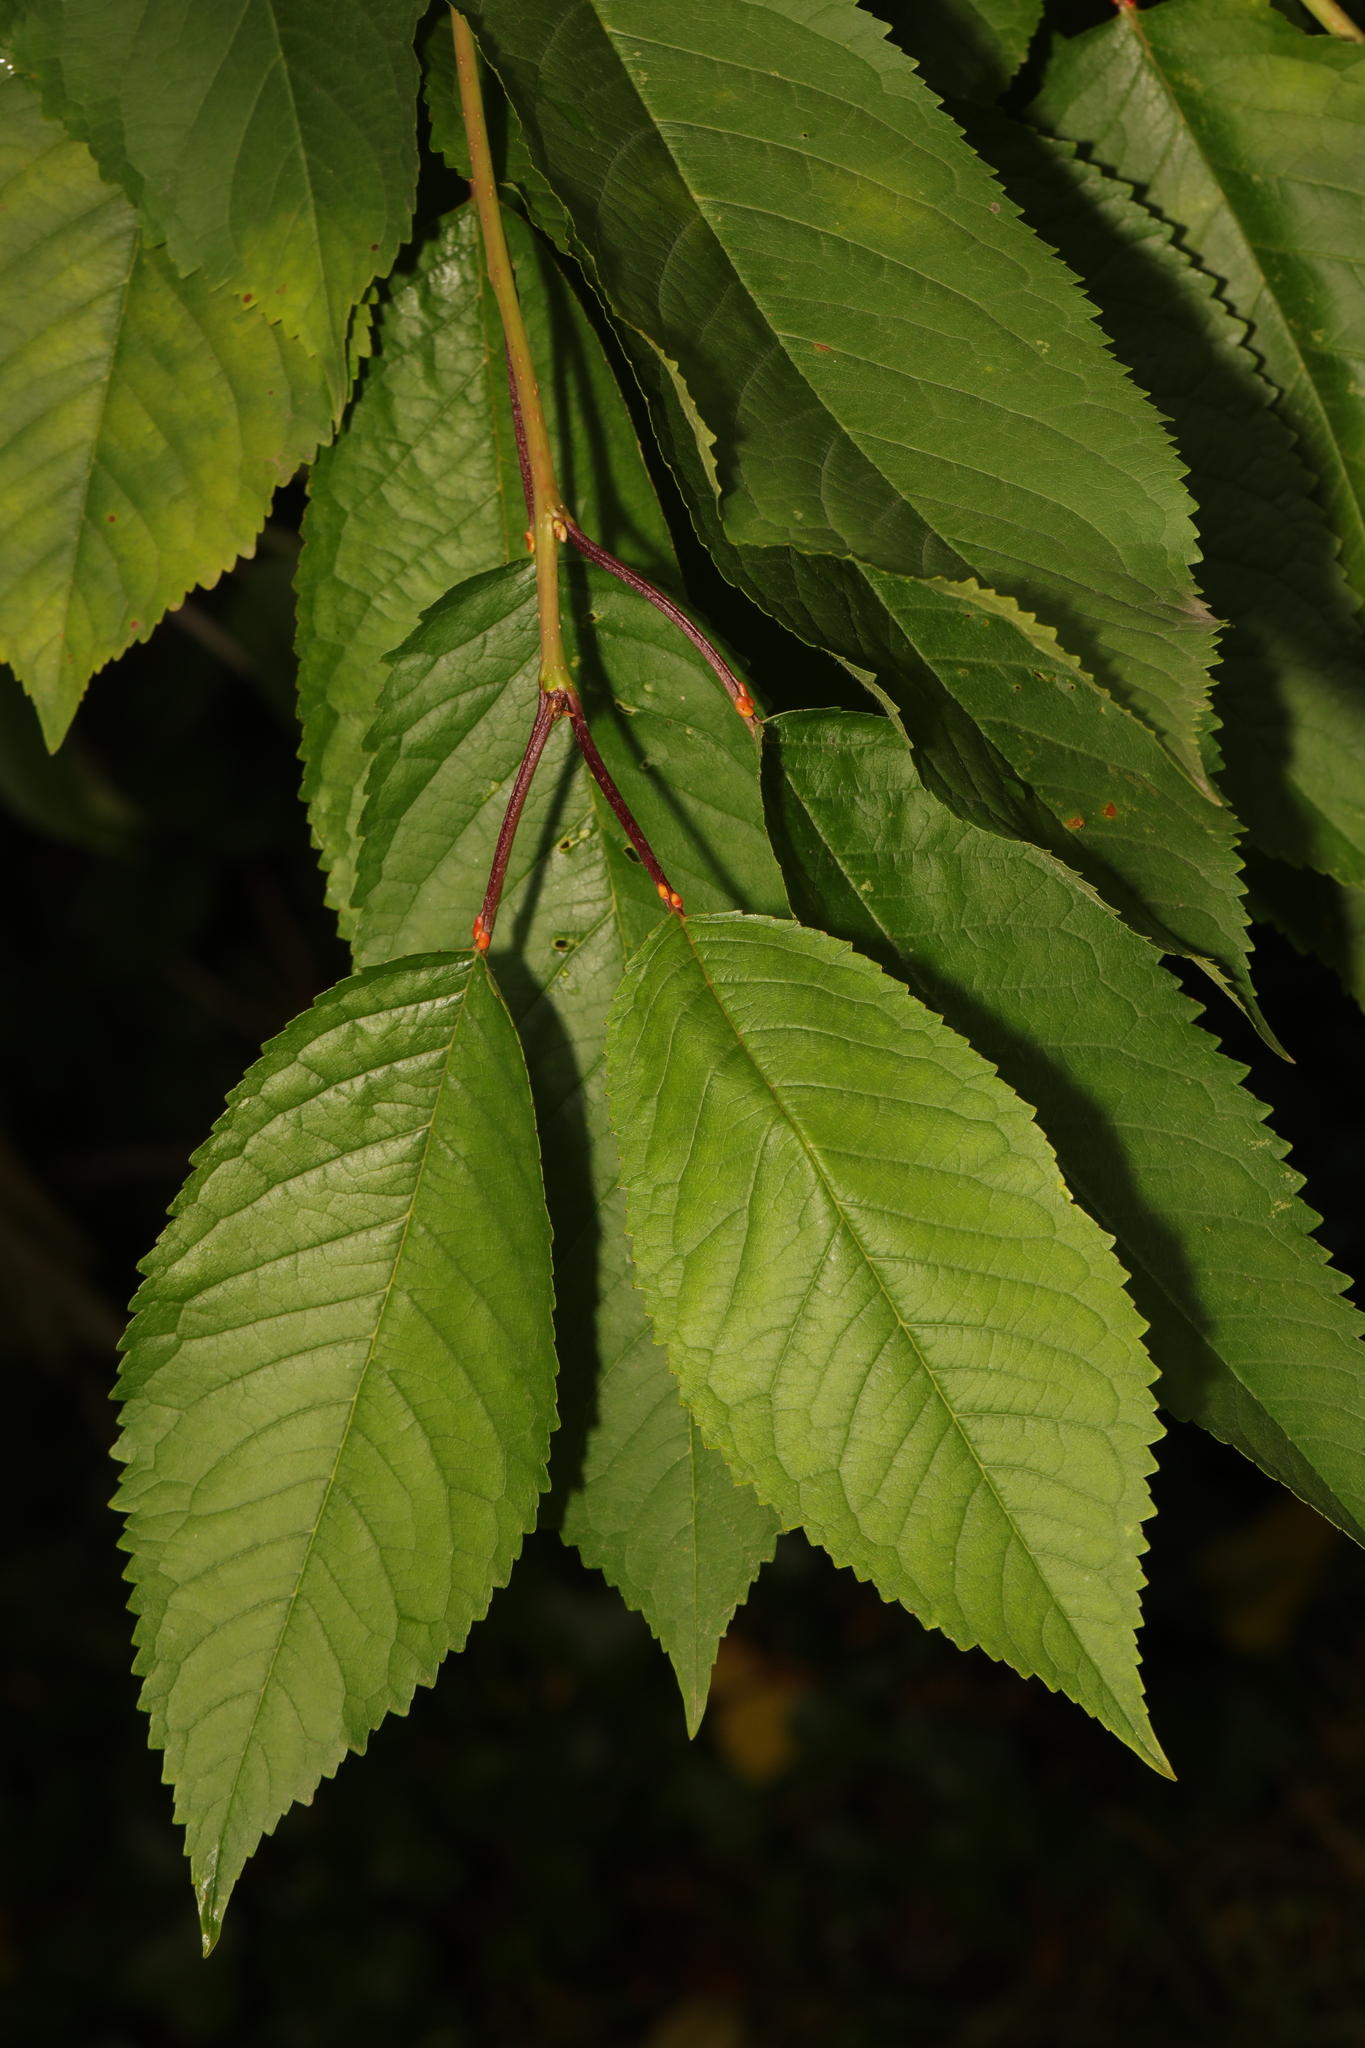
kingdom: Plantae
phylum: Tracheophyta
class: Magnoliopsida
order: Rosales
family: Rosaceae
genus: Prunus
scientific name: Prunus avium
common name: Sweet cherry
